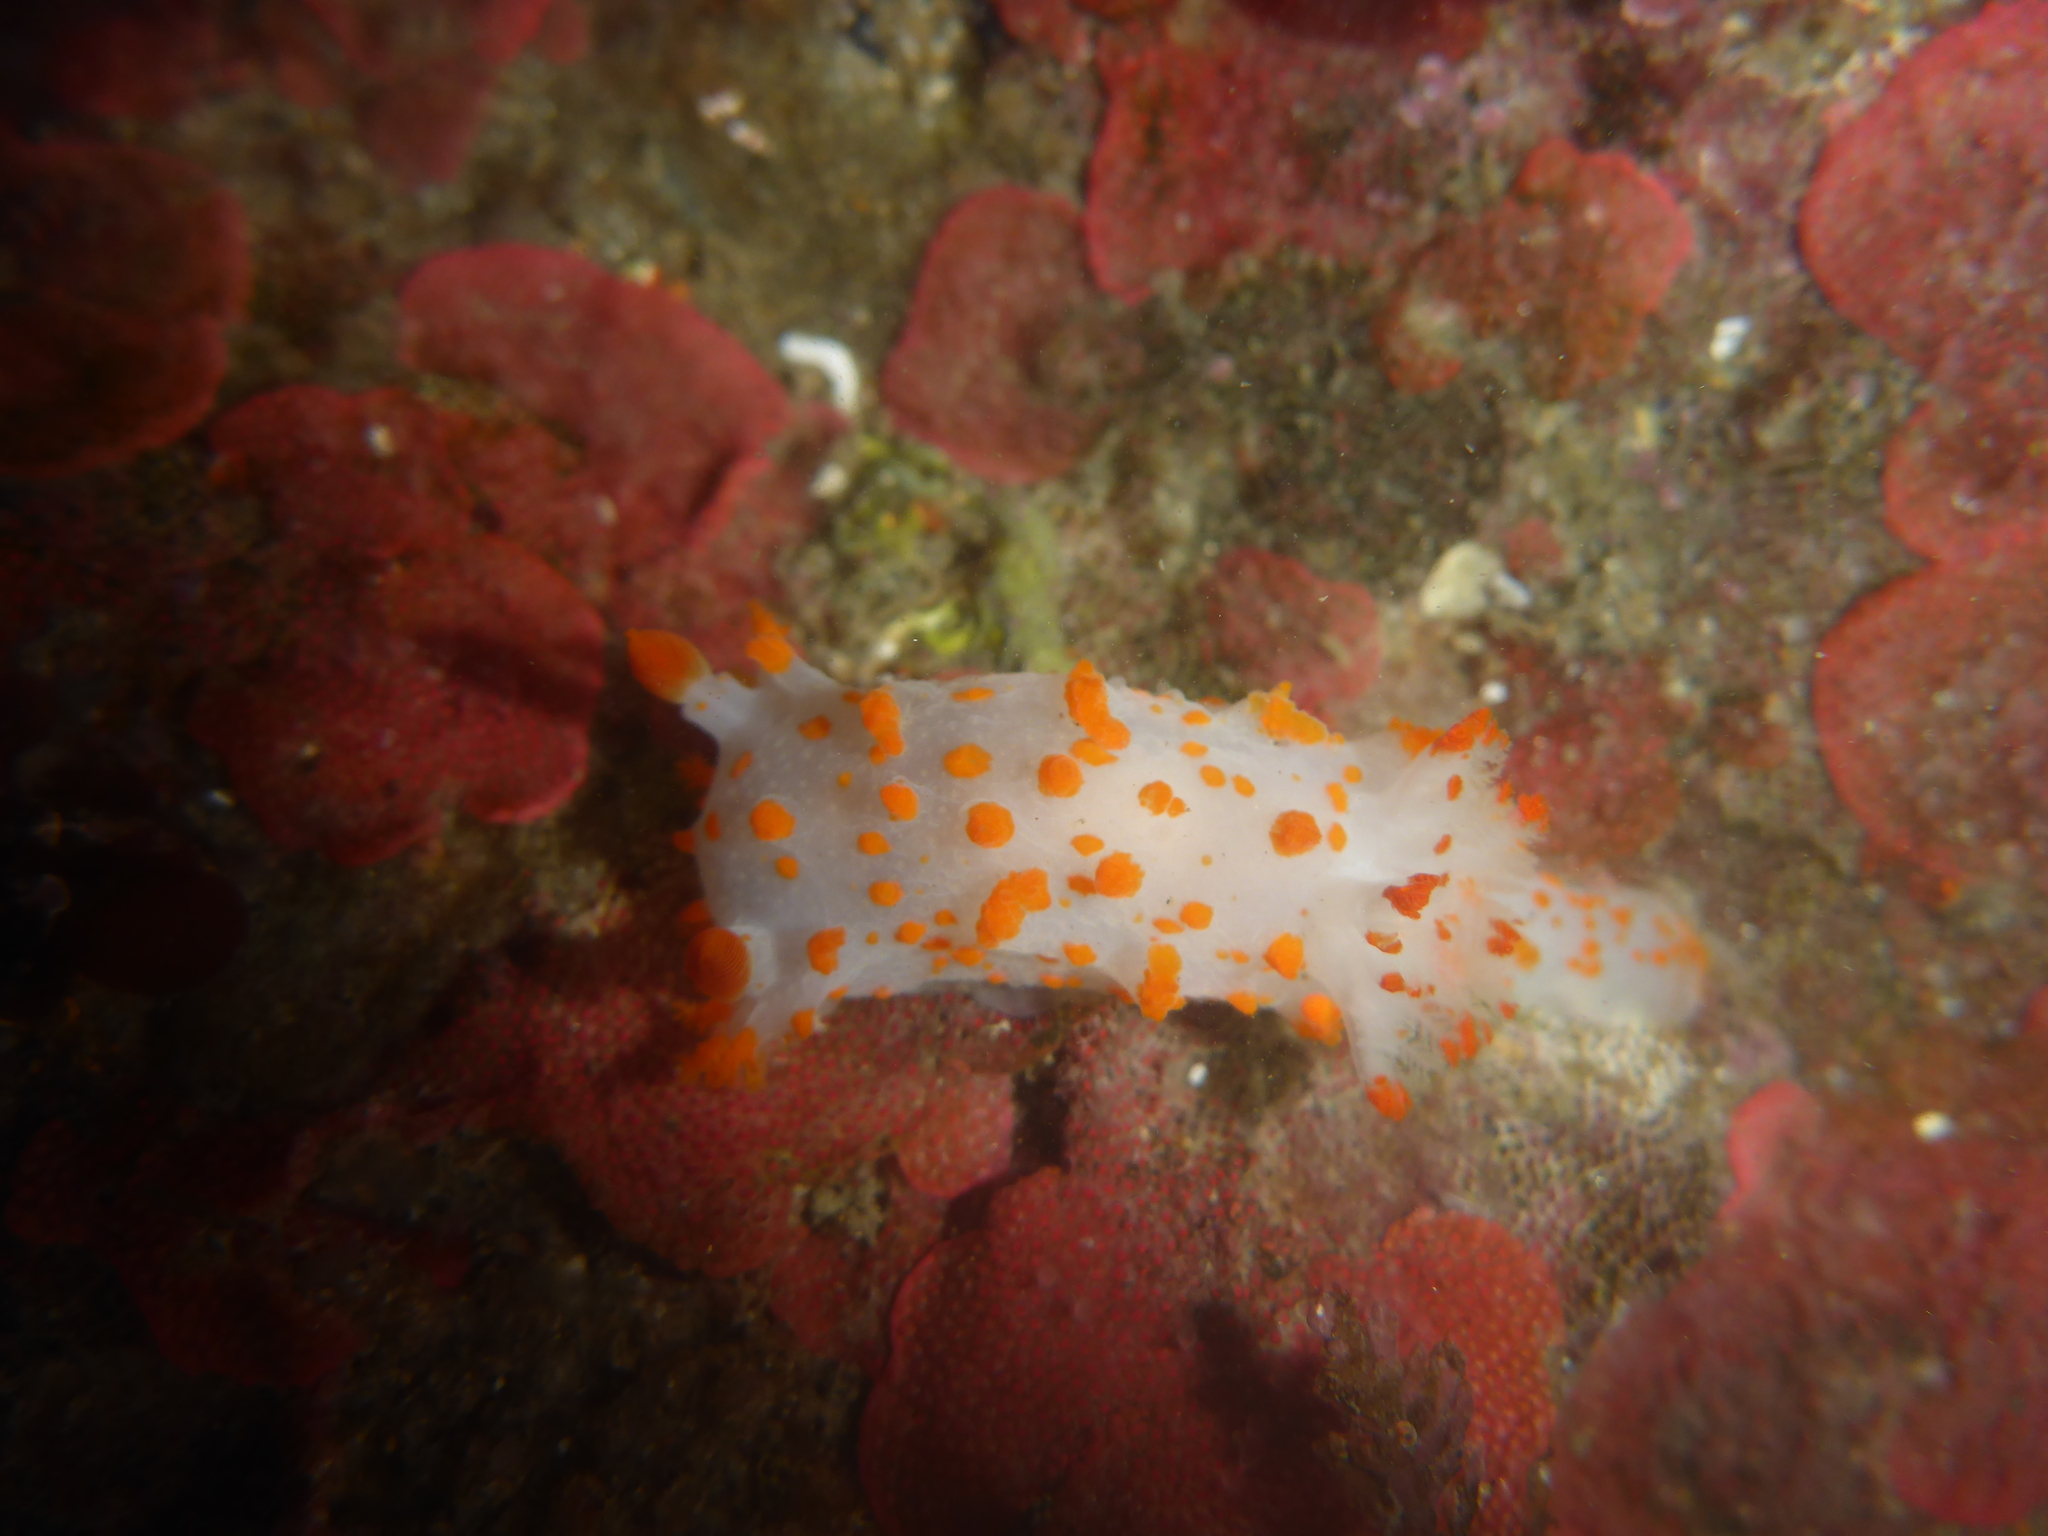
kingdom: Animalia
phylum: Mollusca
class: Gastropoda
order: Nudibranchia
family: Polyceridae
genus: Triopha
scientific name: Triopha catalinae
